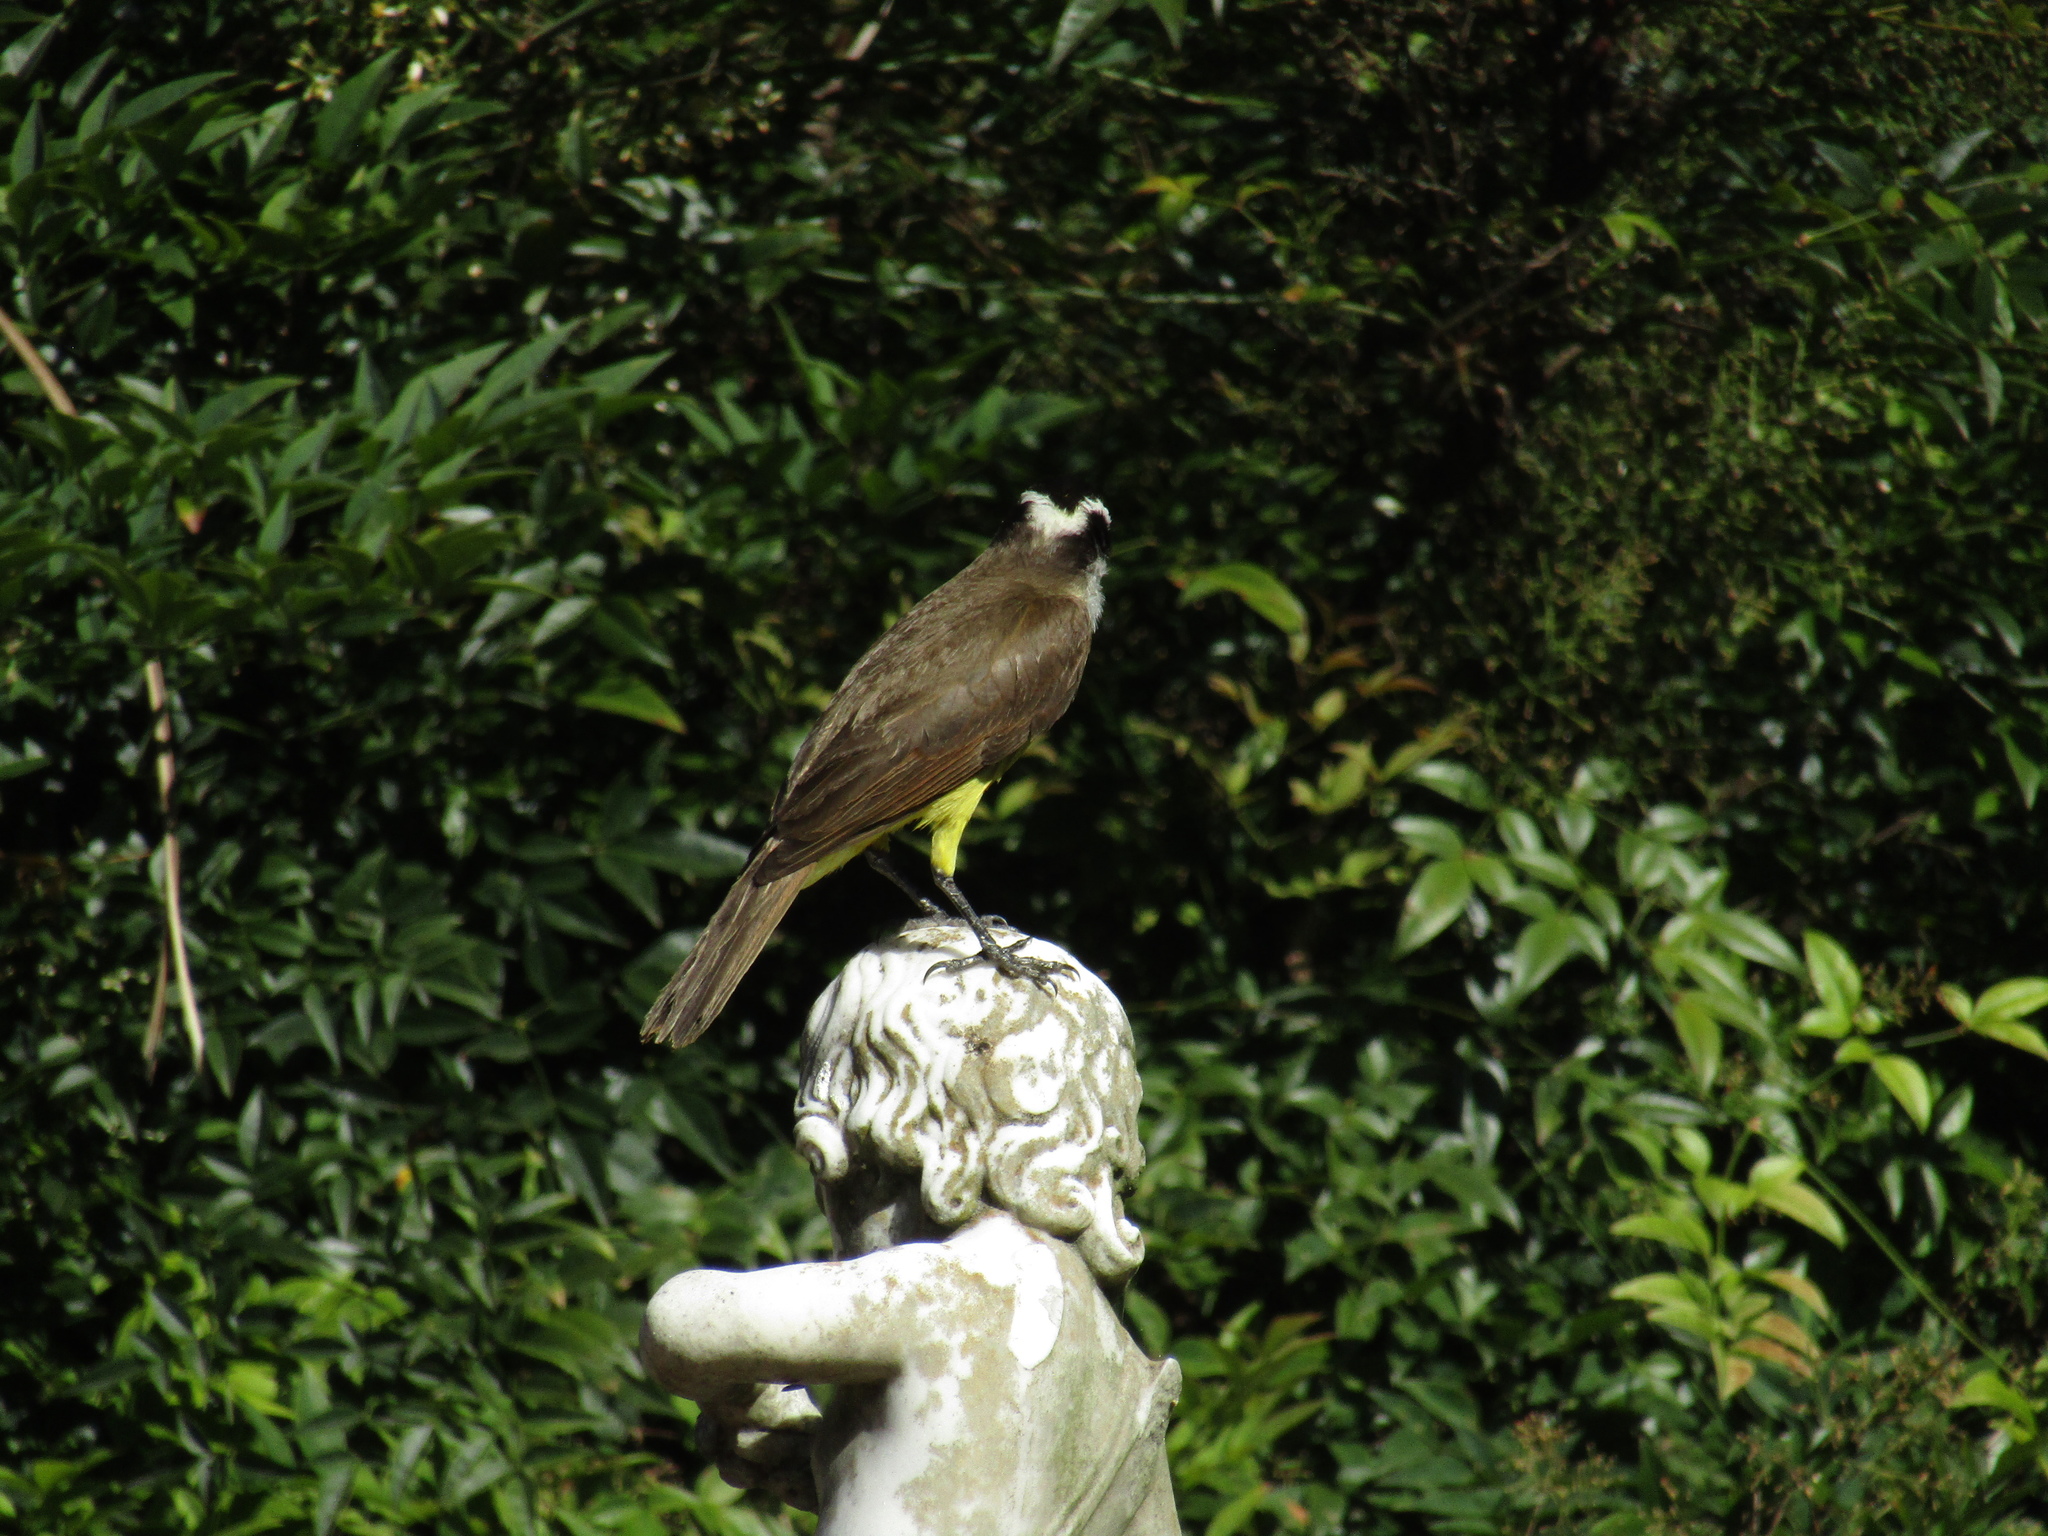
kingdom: Animalia
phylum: Chordata
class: Aves
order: Passeriformes
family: Tyrannidae
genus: Pitangus
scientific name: Pitangus sulphuratus
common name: Great kiskadee
